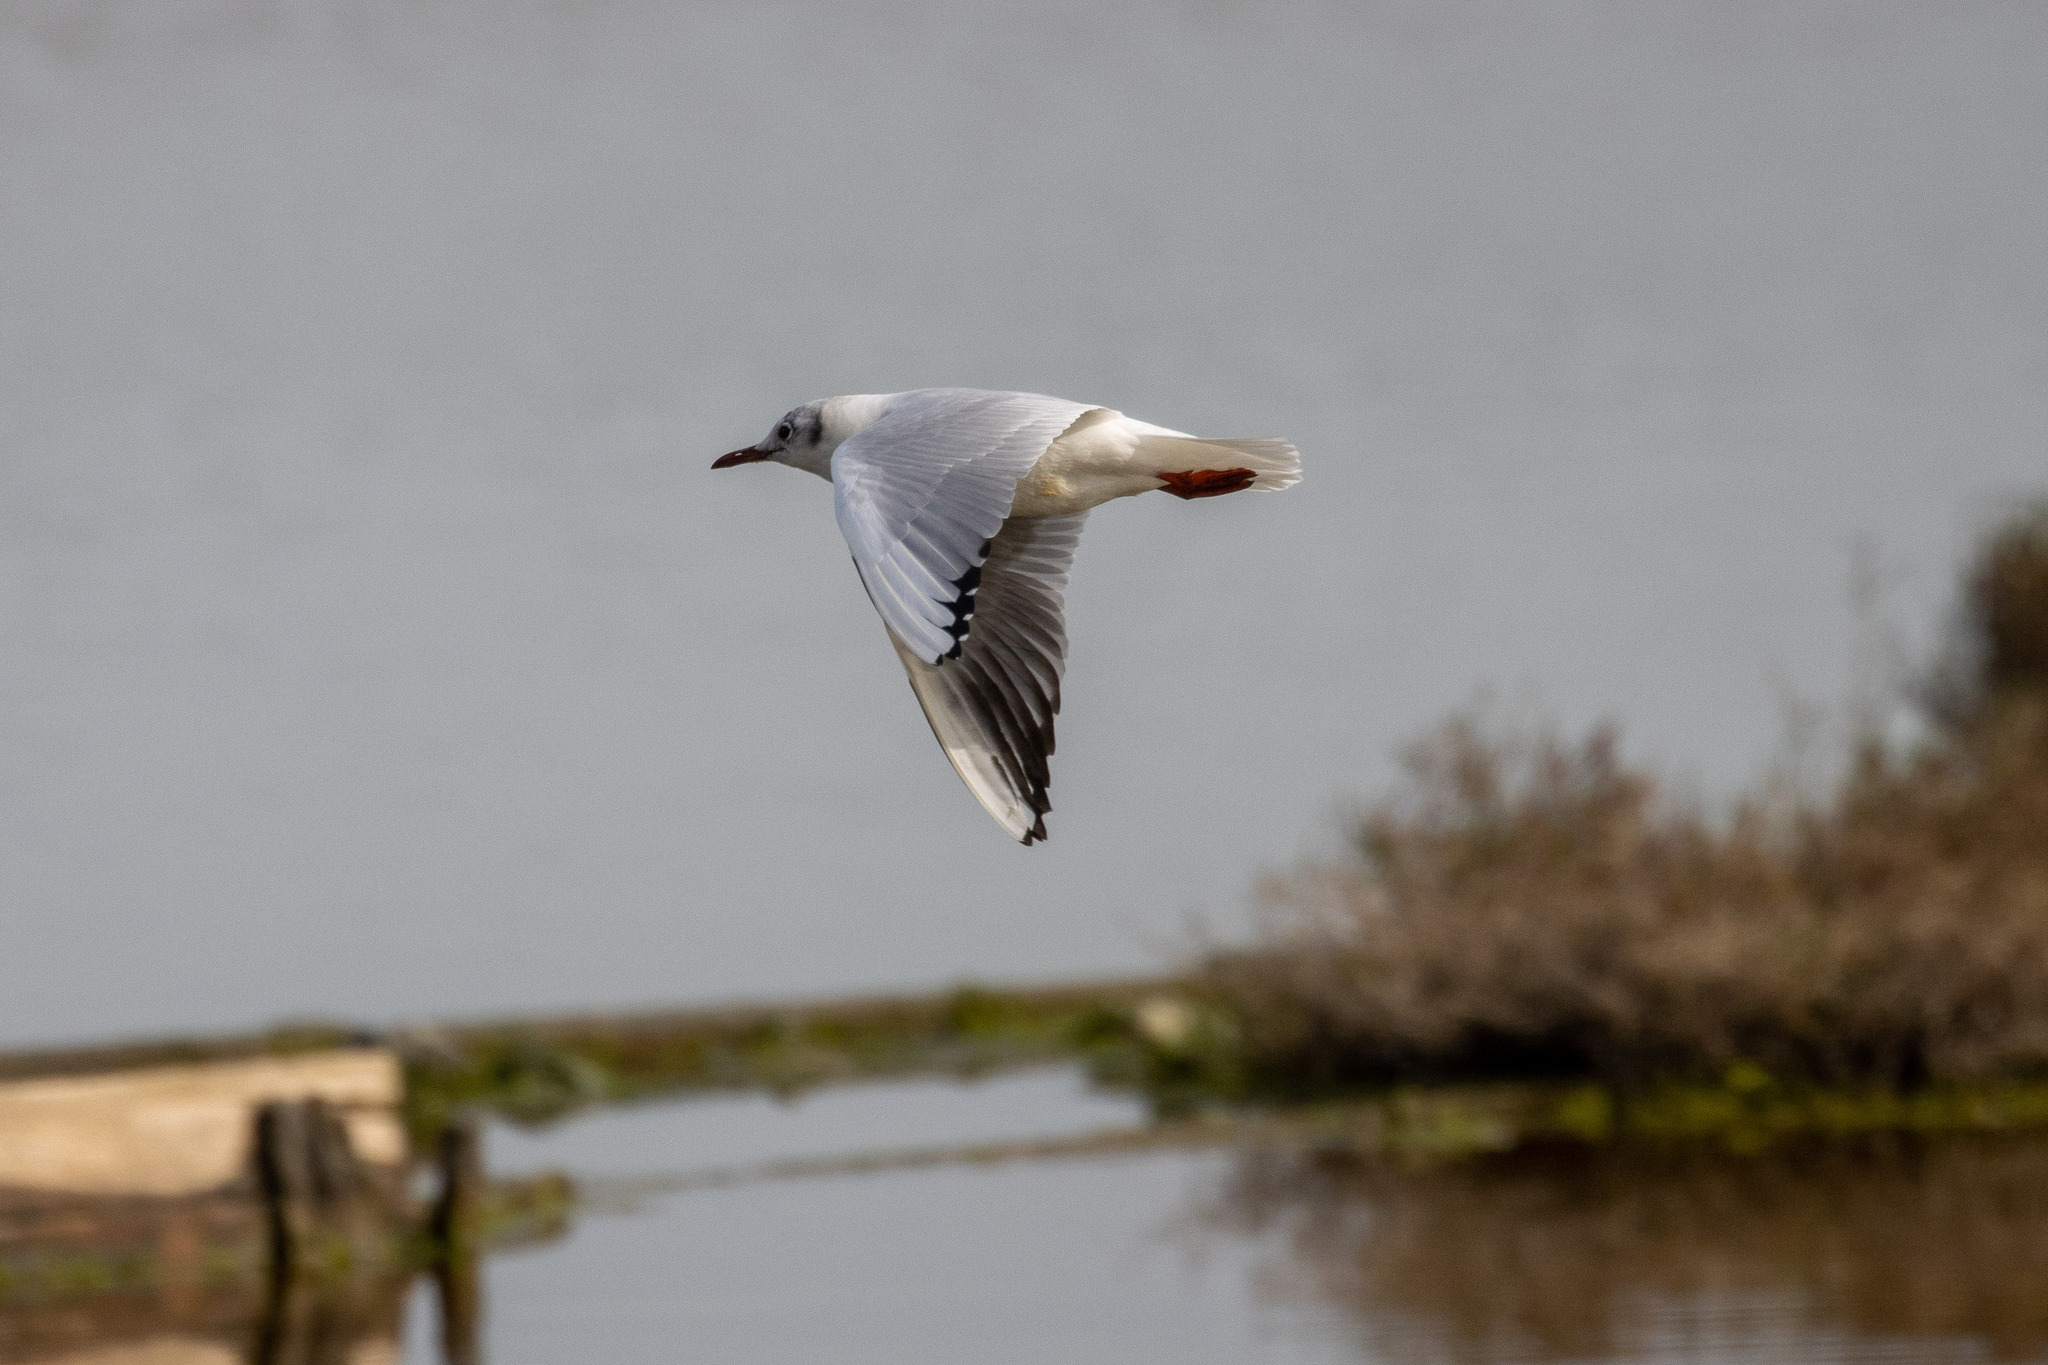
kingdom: Animalia
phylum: Chordata
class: Aves
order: Charadriiformes
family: Laridae
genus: Chroicocephalus
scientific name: Chroicocephalus ridibundus
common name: Black-headed gull
